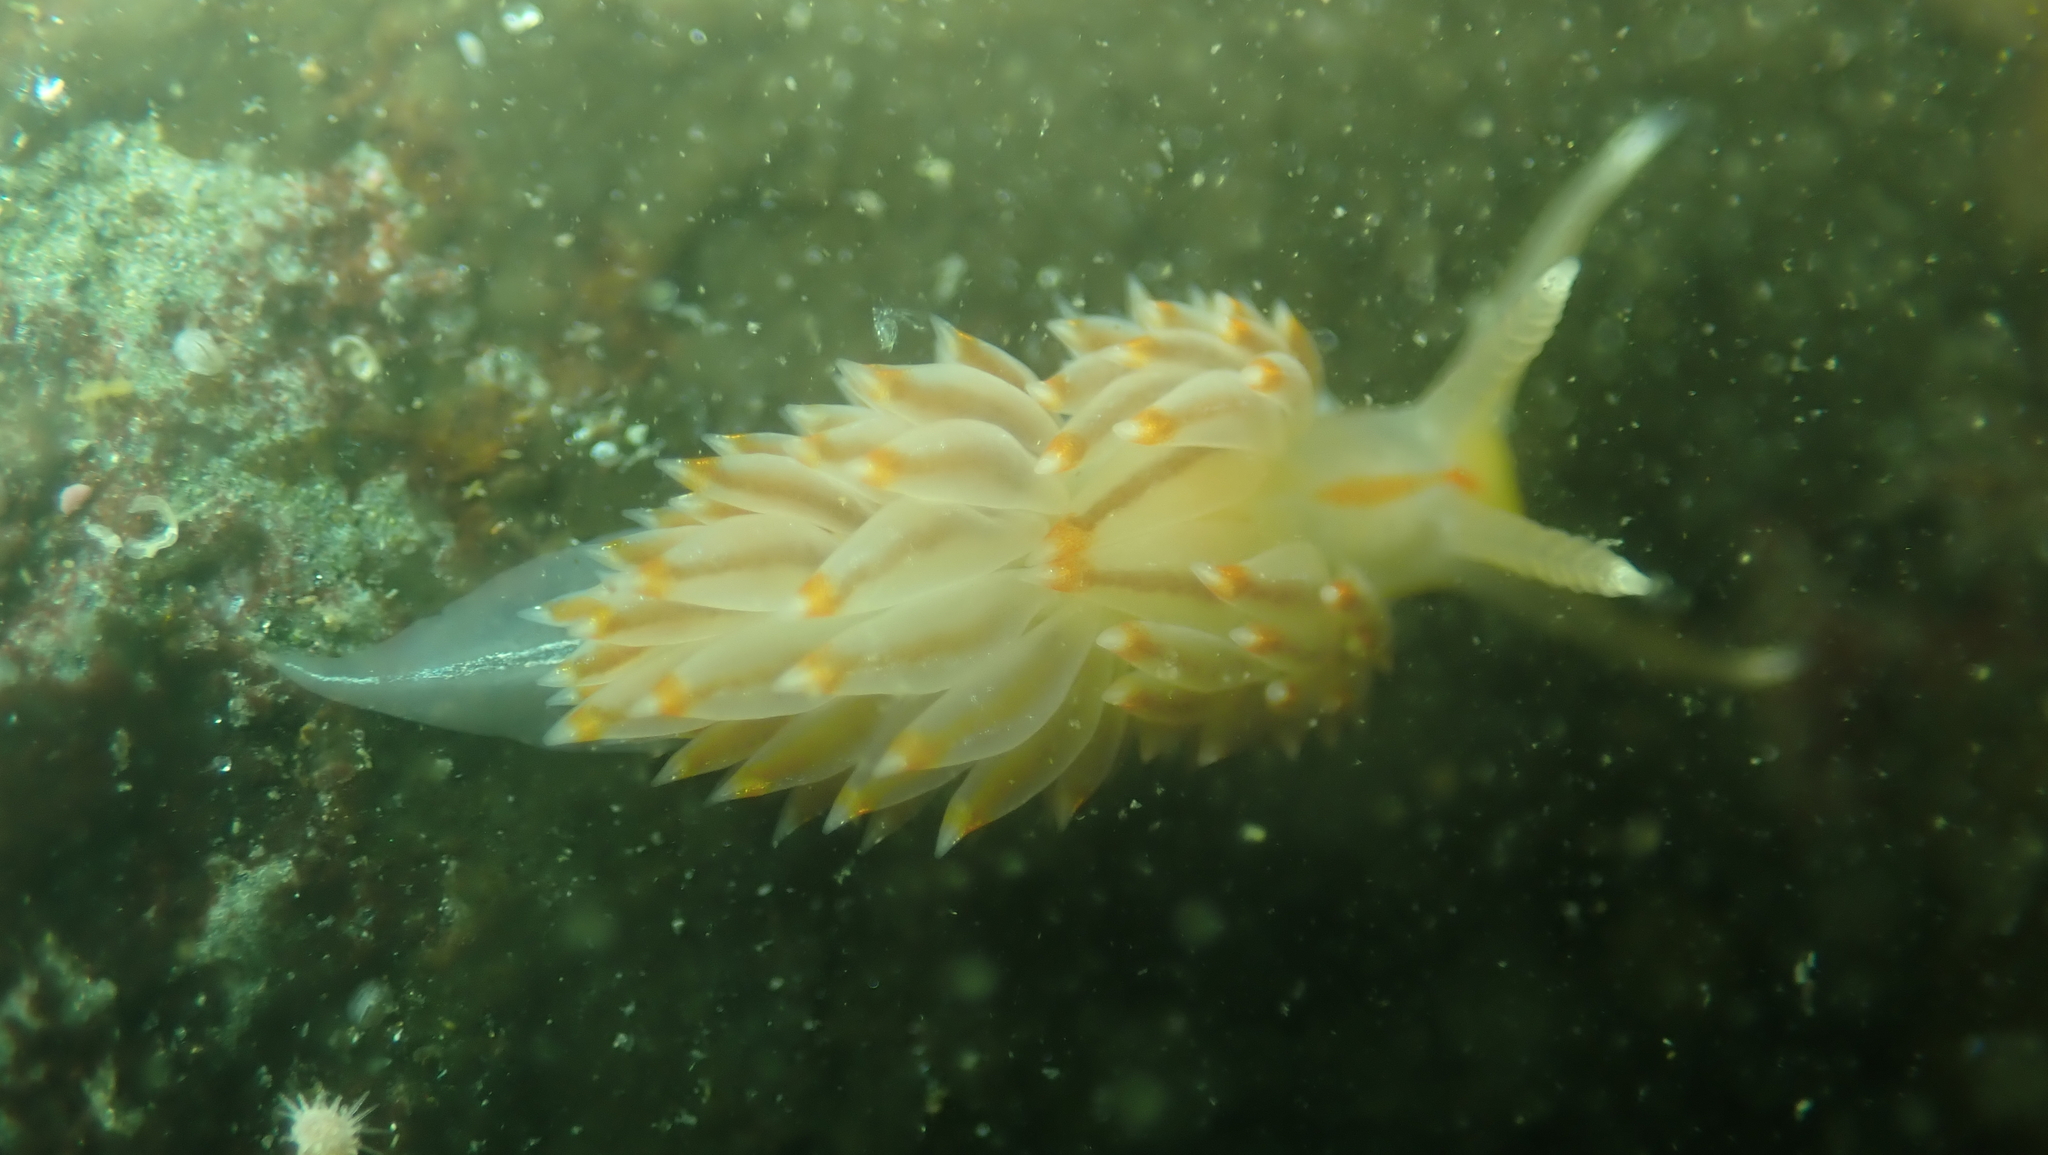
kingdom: Animalia
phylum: Mollusca
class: Gastropoda
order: Nudibranchia
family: Janolidae
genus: Antiopella
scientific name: Antiopella fusca
